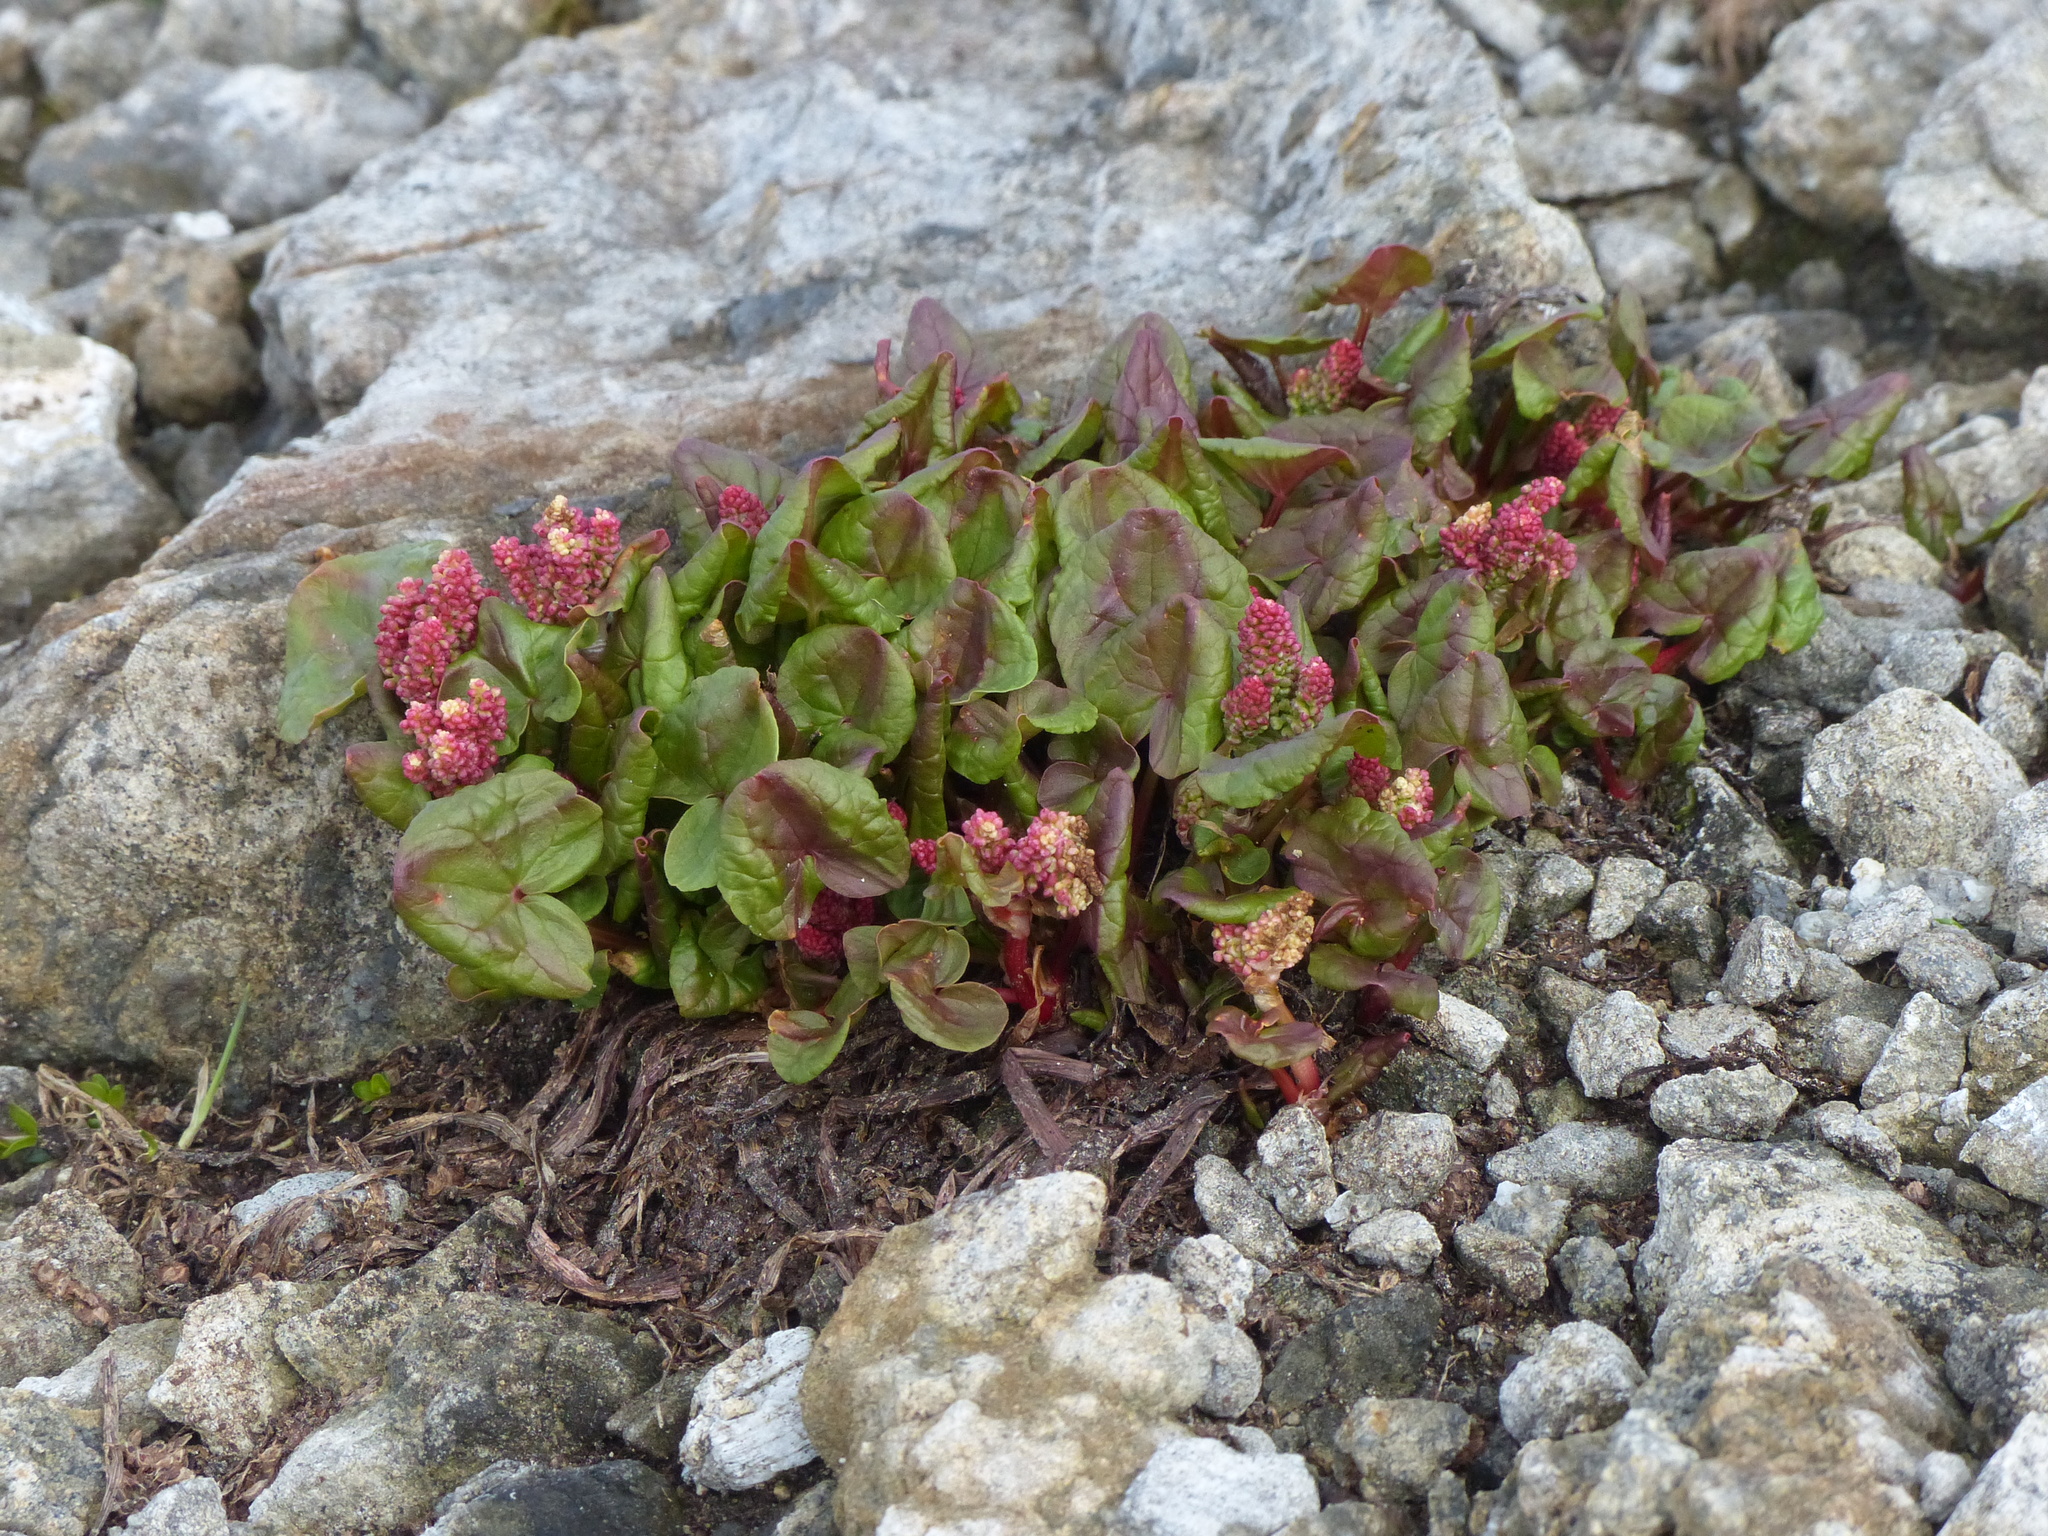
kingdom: Plantae
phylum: Tracheophyta
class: Magnoliopsida
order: Caryophyllales
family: Polygonaceae
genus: Oxyria
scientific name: Oxyria digyna
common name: Alpine mountain-sorrel
